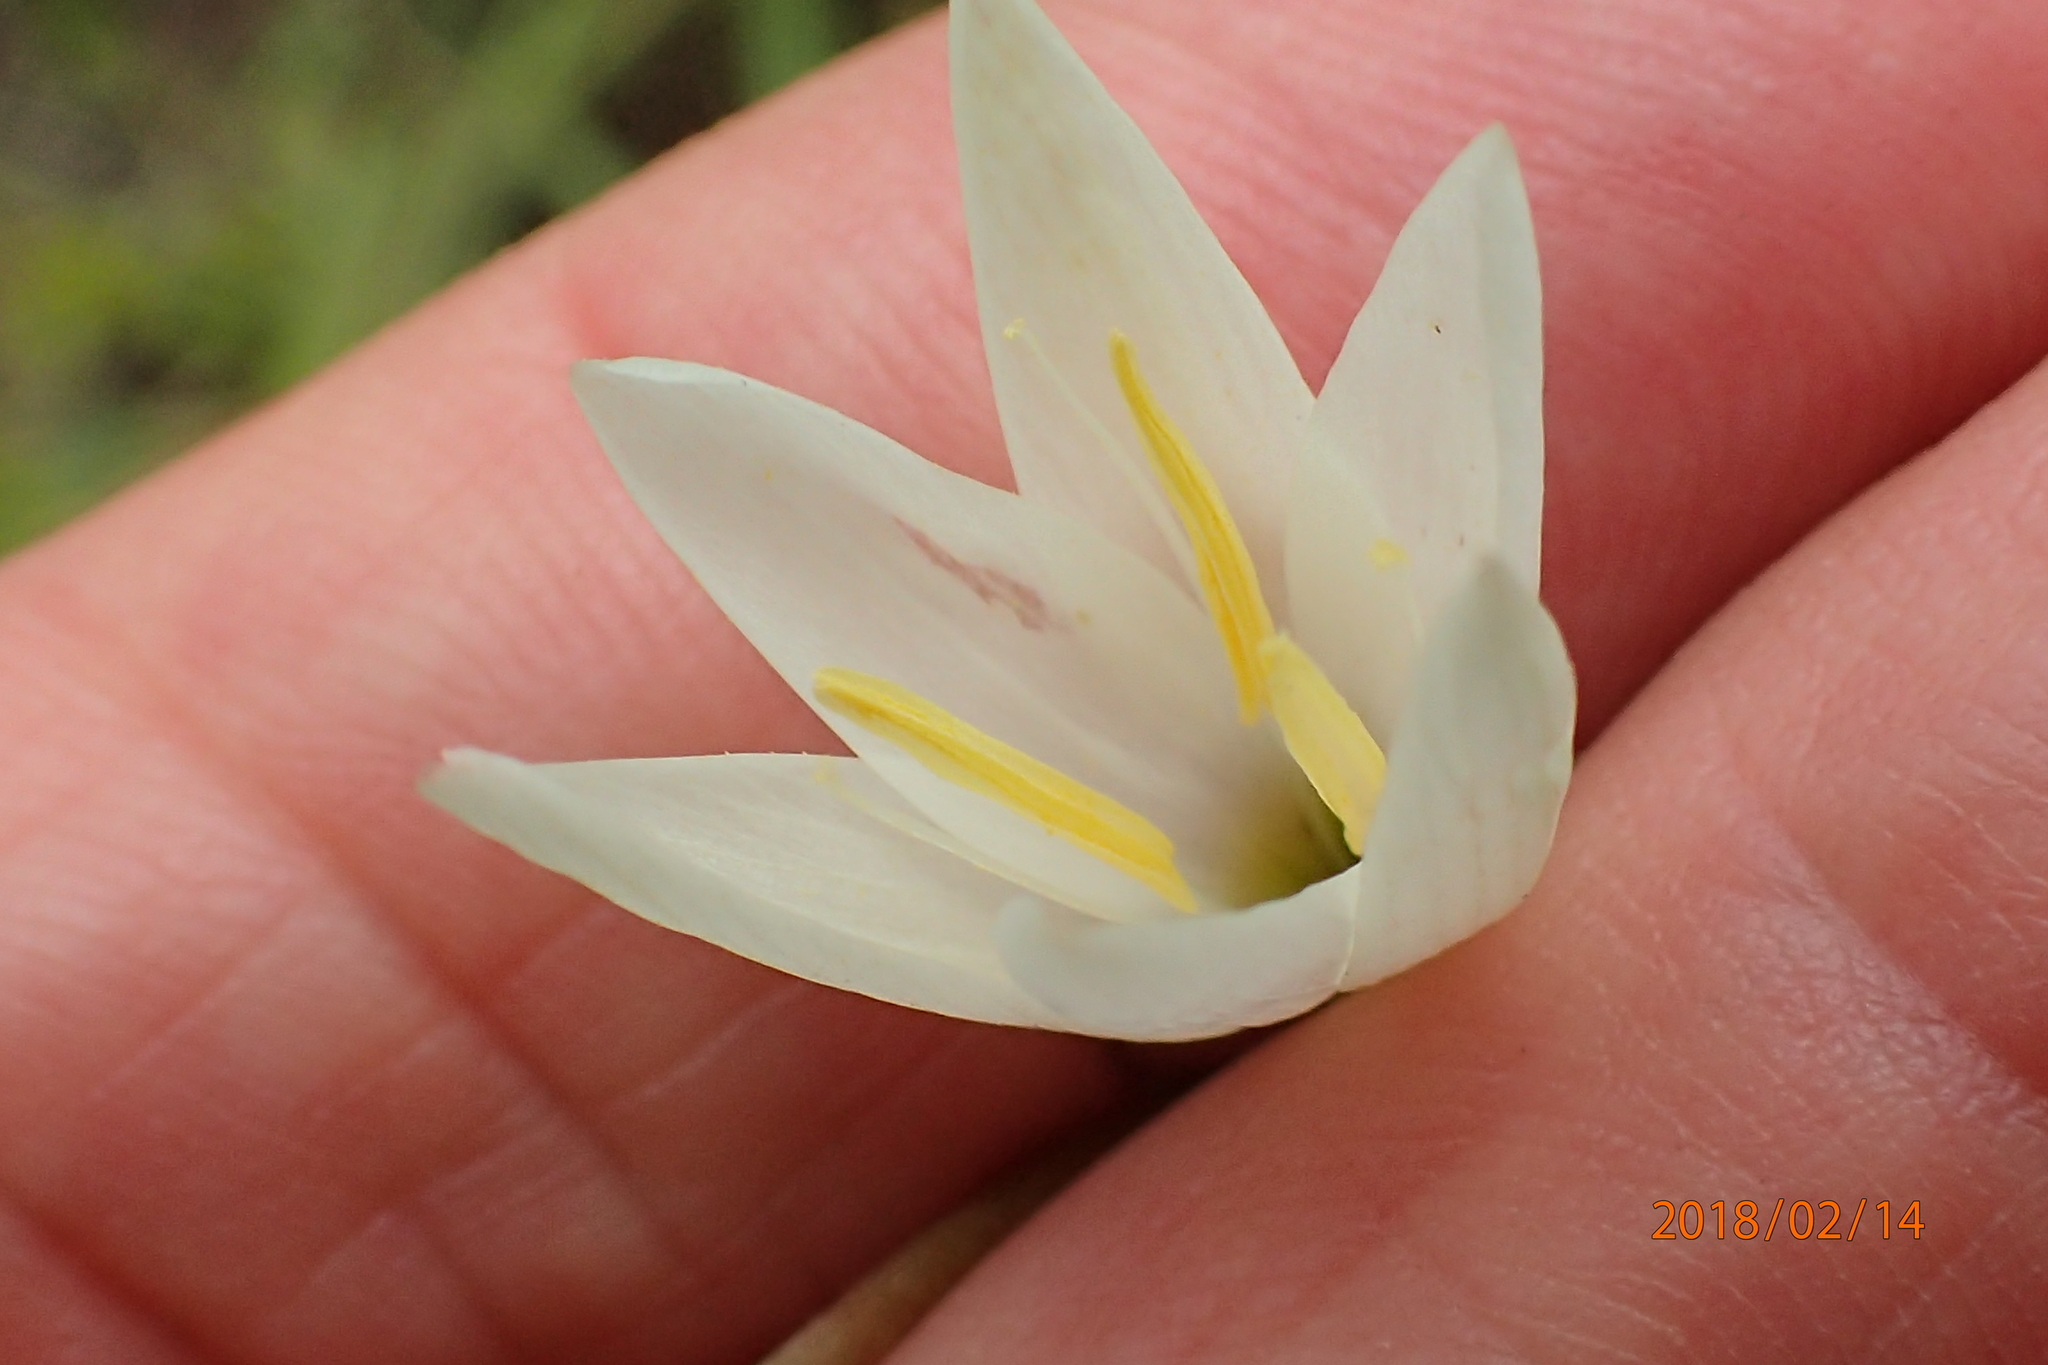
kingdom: Plantae
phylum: Tracheophyta
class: Liliopsida
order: Asparagales
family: Iridaceae
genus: Hesperantha
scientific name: Hesperantha hygrophila
